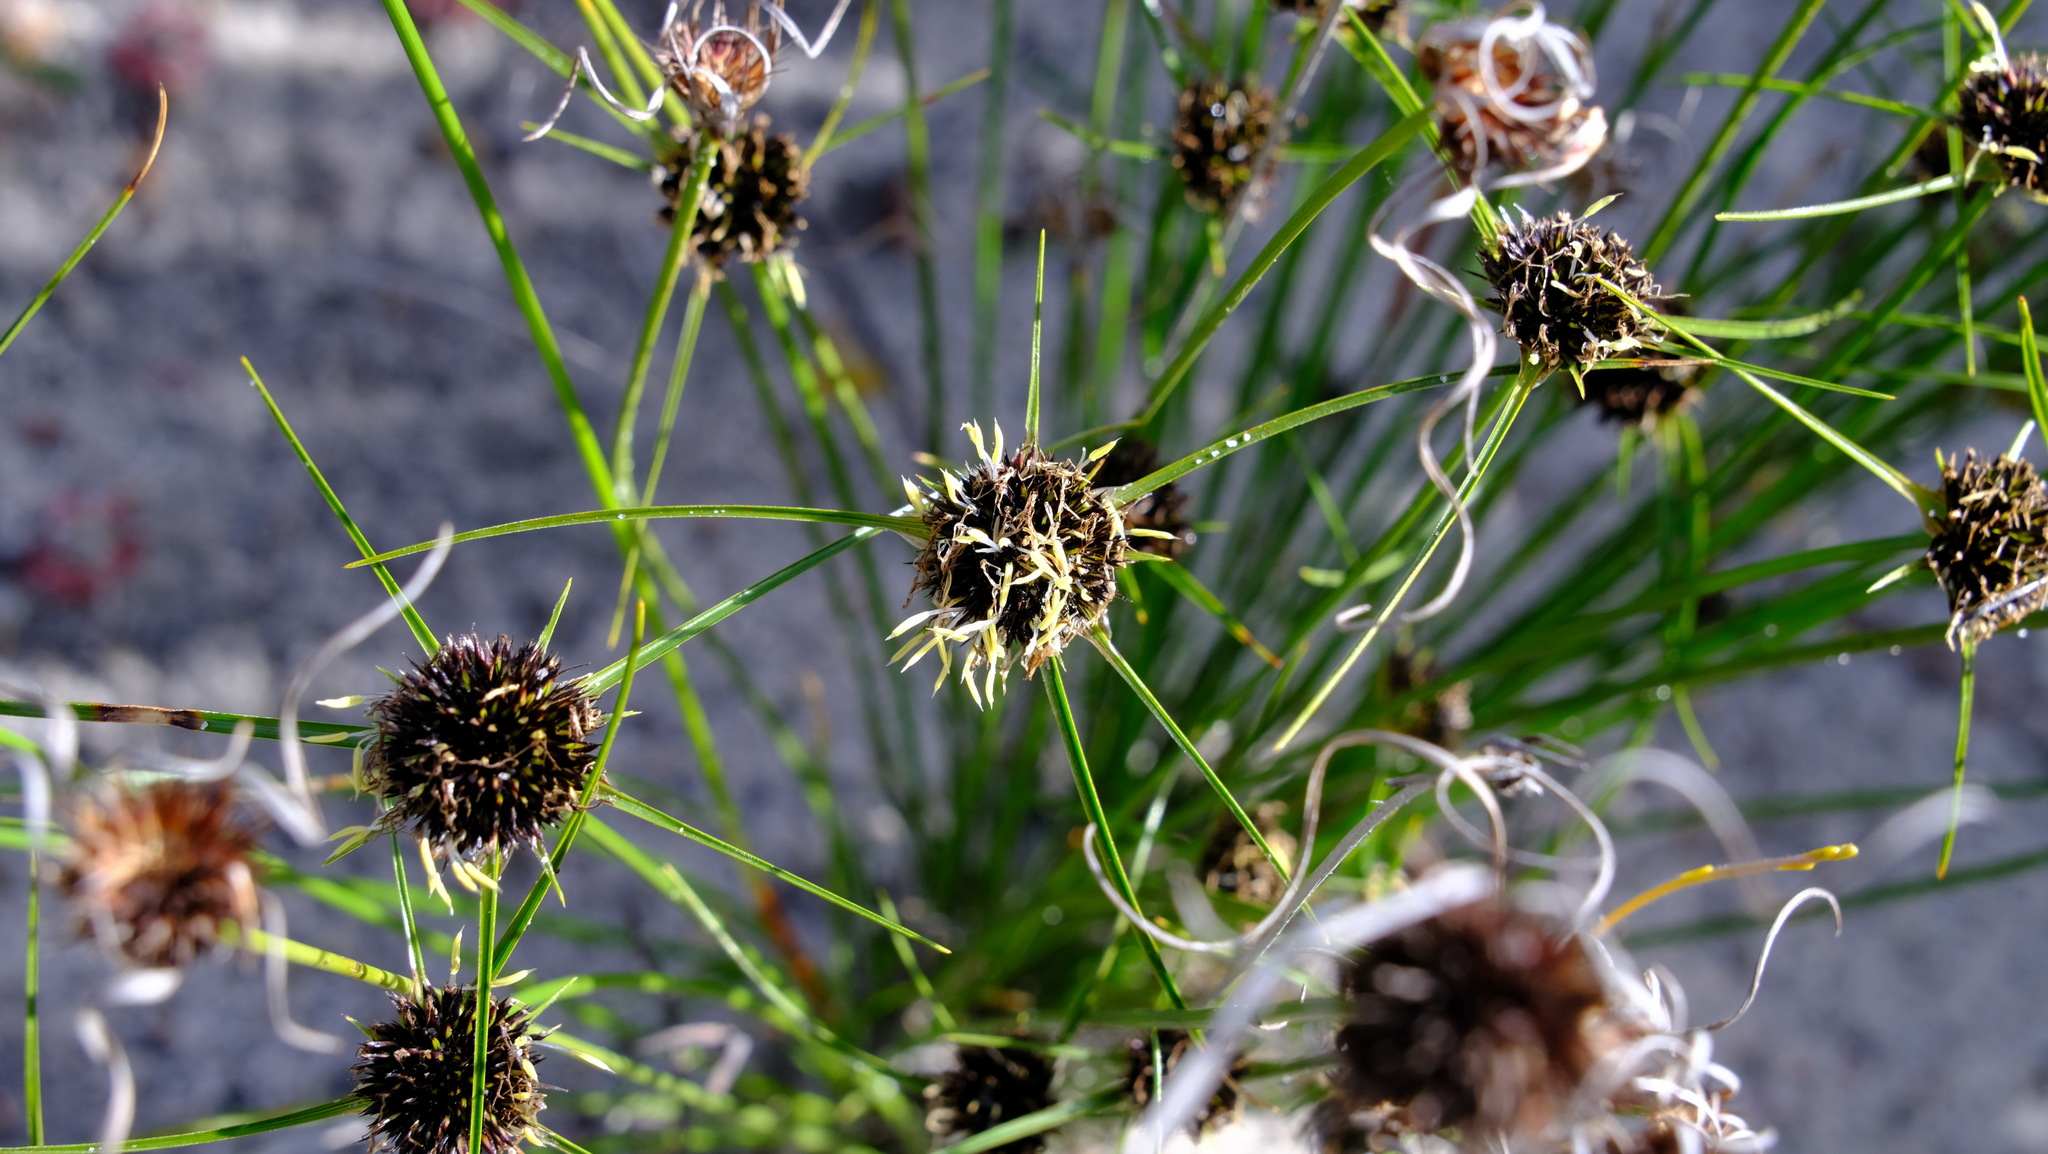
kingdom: Plantae
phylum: Tracheophyta
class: Liliopsida
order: Poales
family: Cyperaceae
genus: Schoenus
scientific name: Schoenus curvifolius
